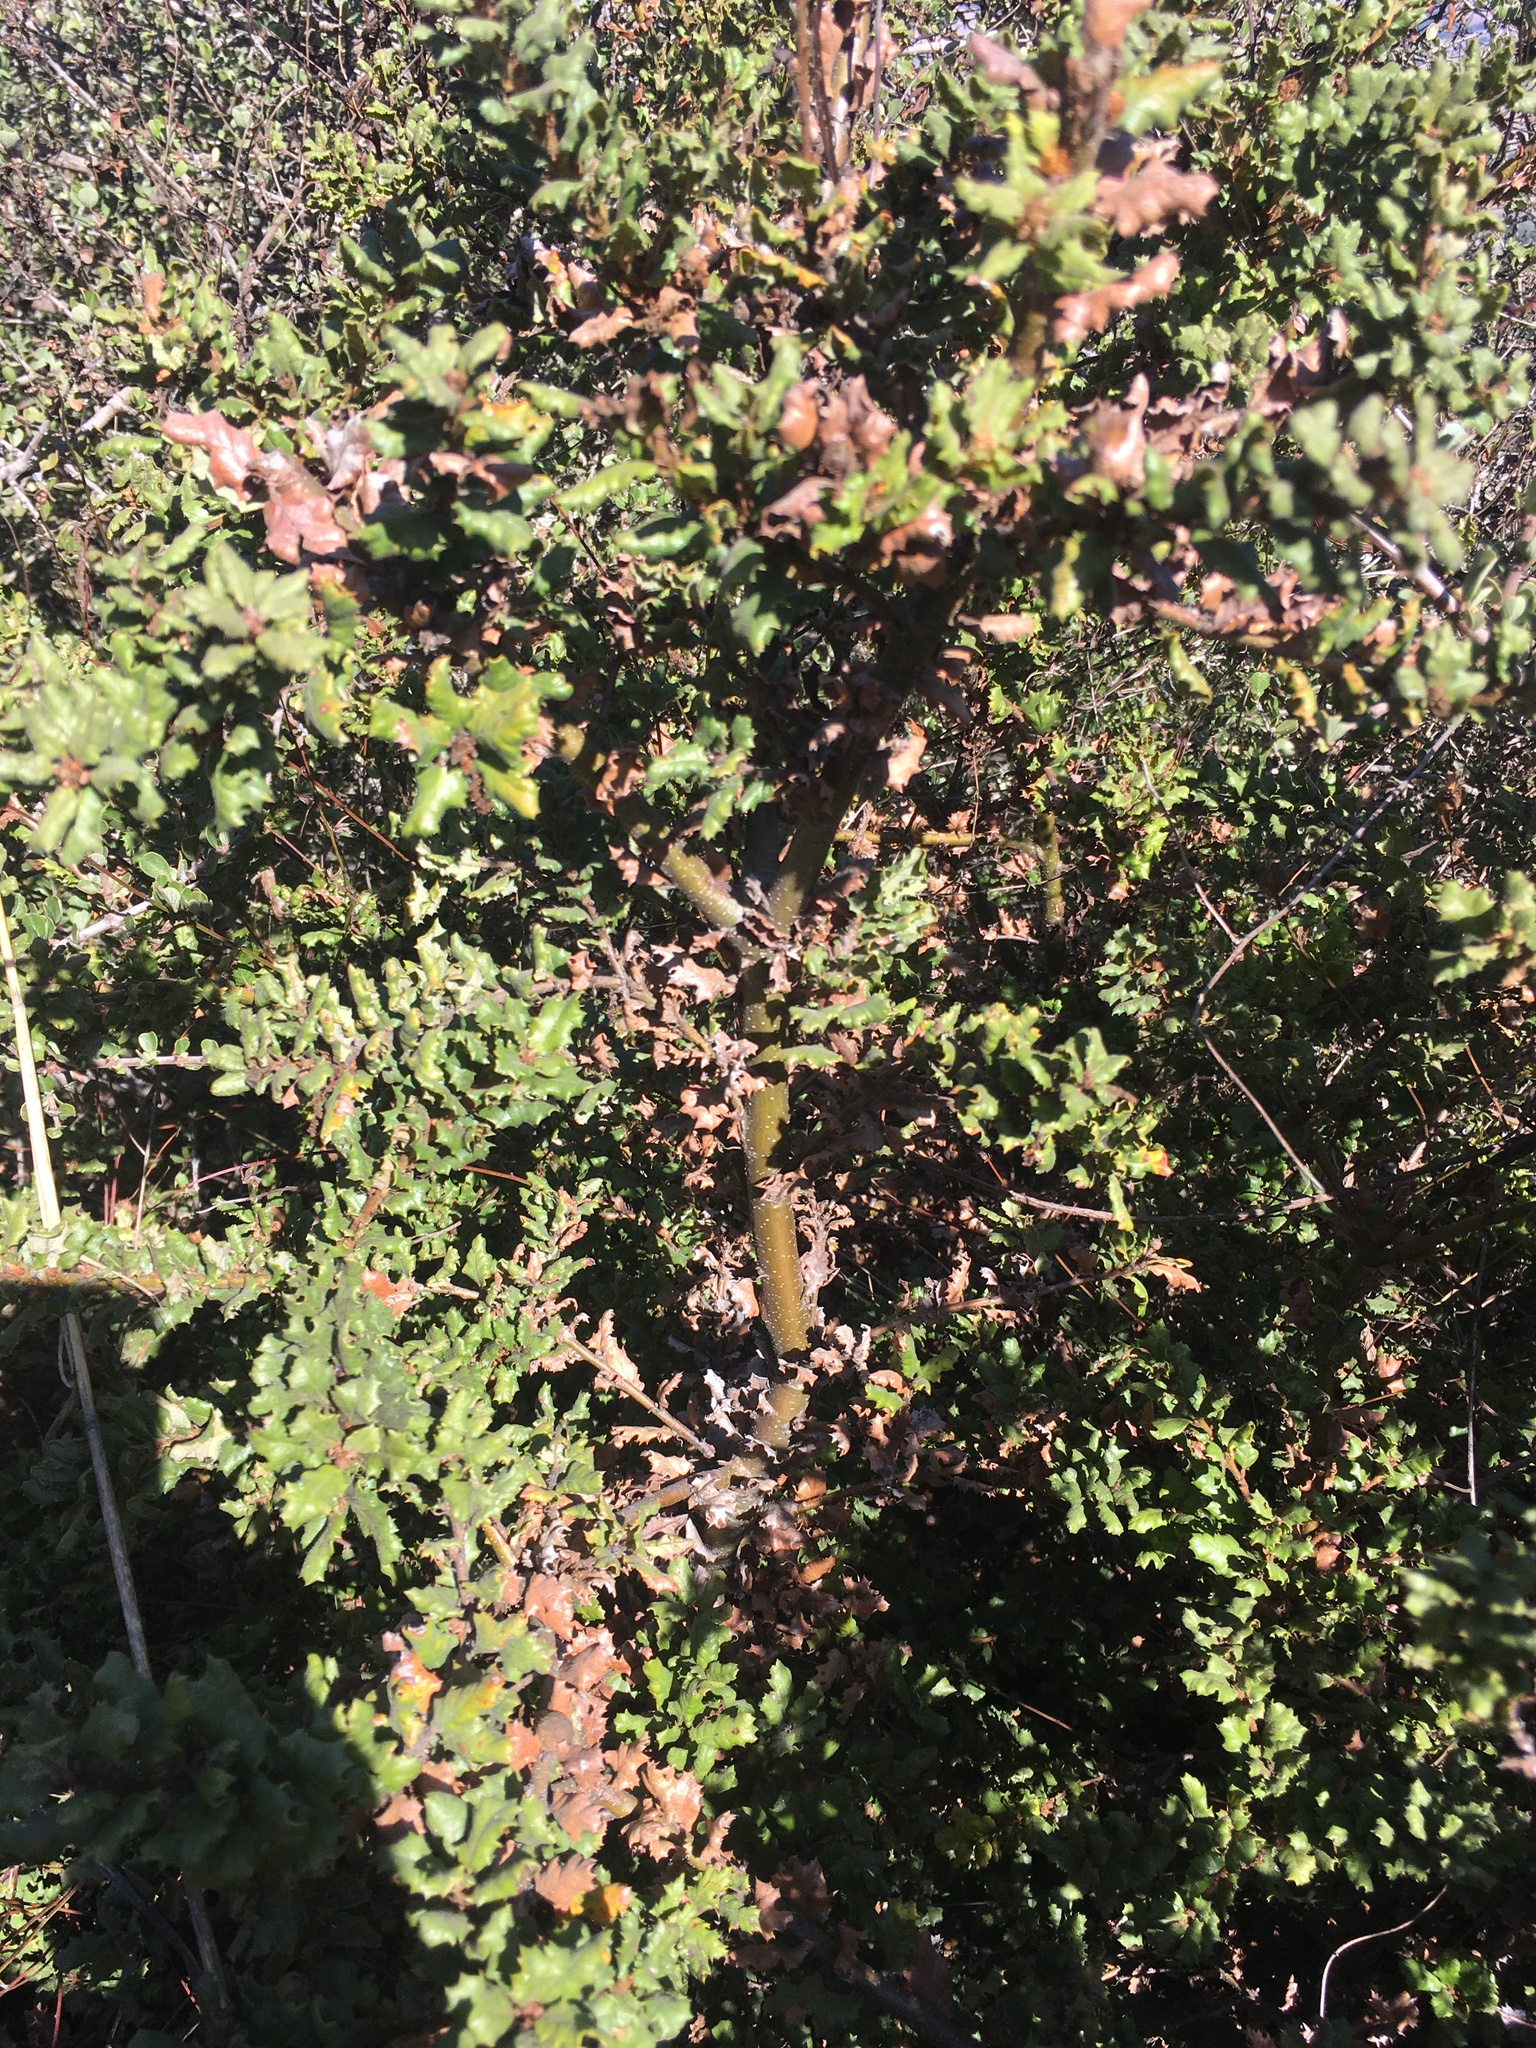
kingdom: Plantae
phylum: Tracheophyta
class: Magnoliopsida
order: Fagales
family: Fagaceae
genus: Quercus
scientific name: Quercus durata
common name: Leather oak
